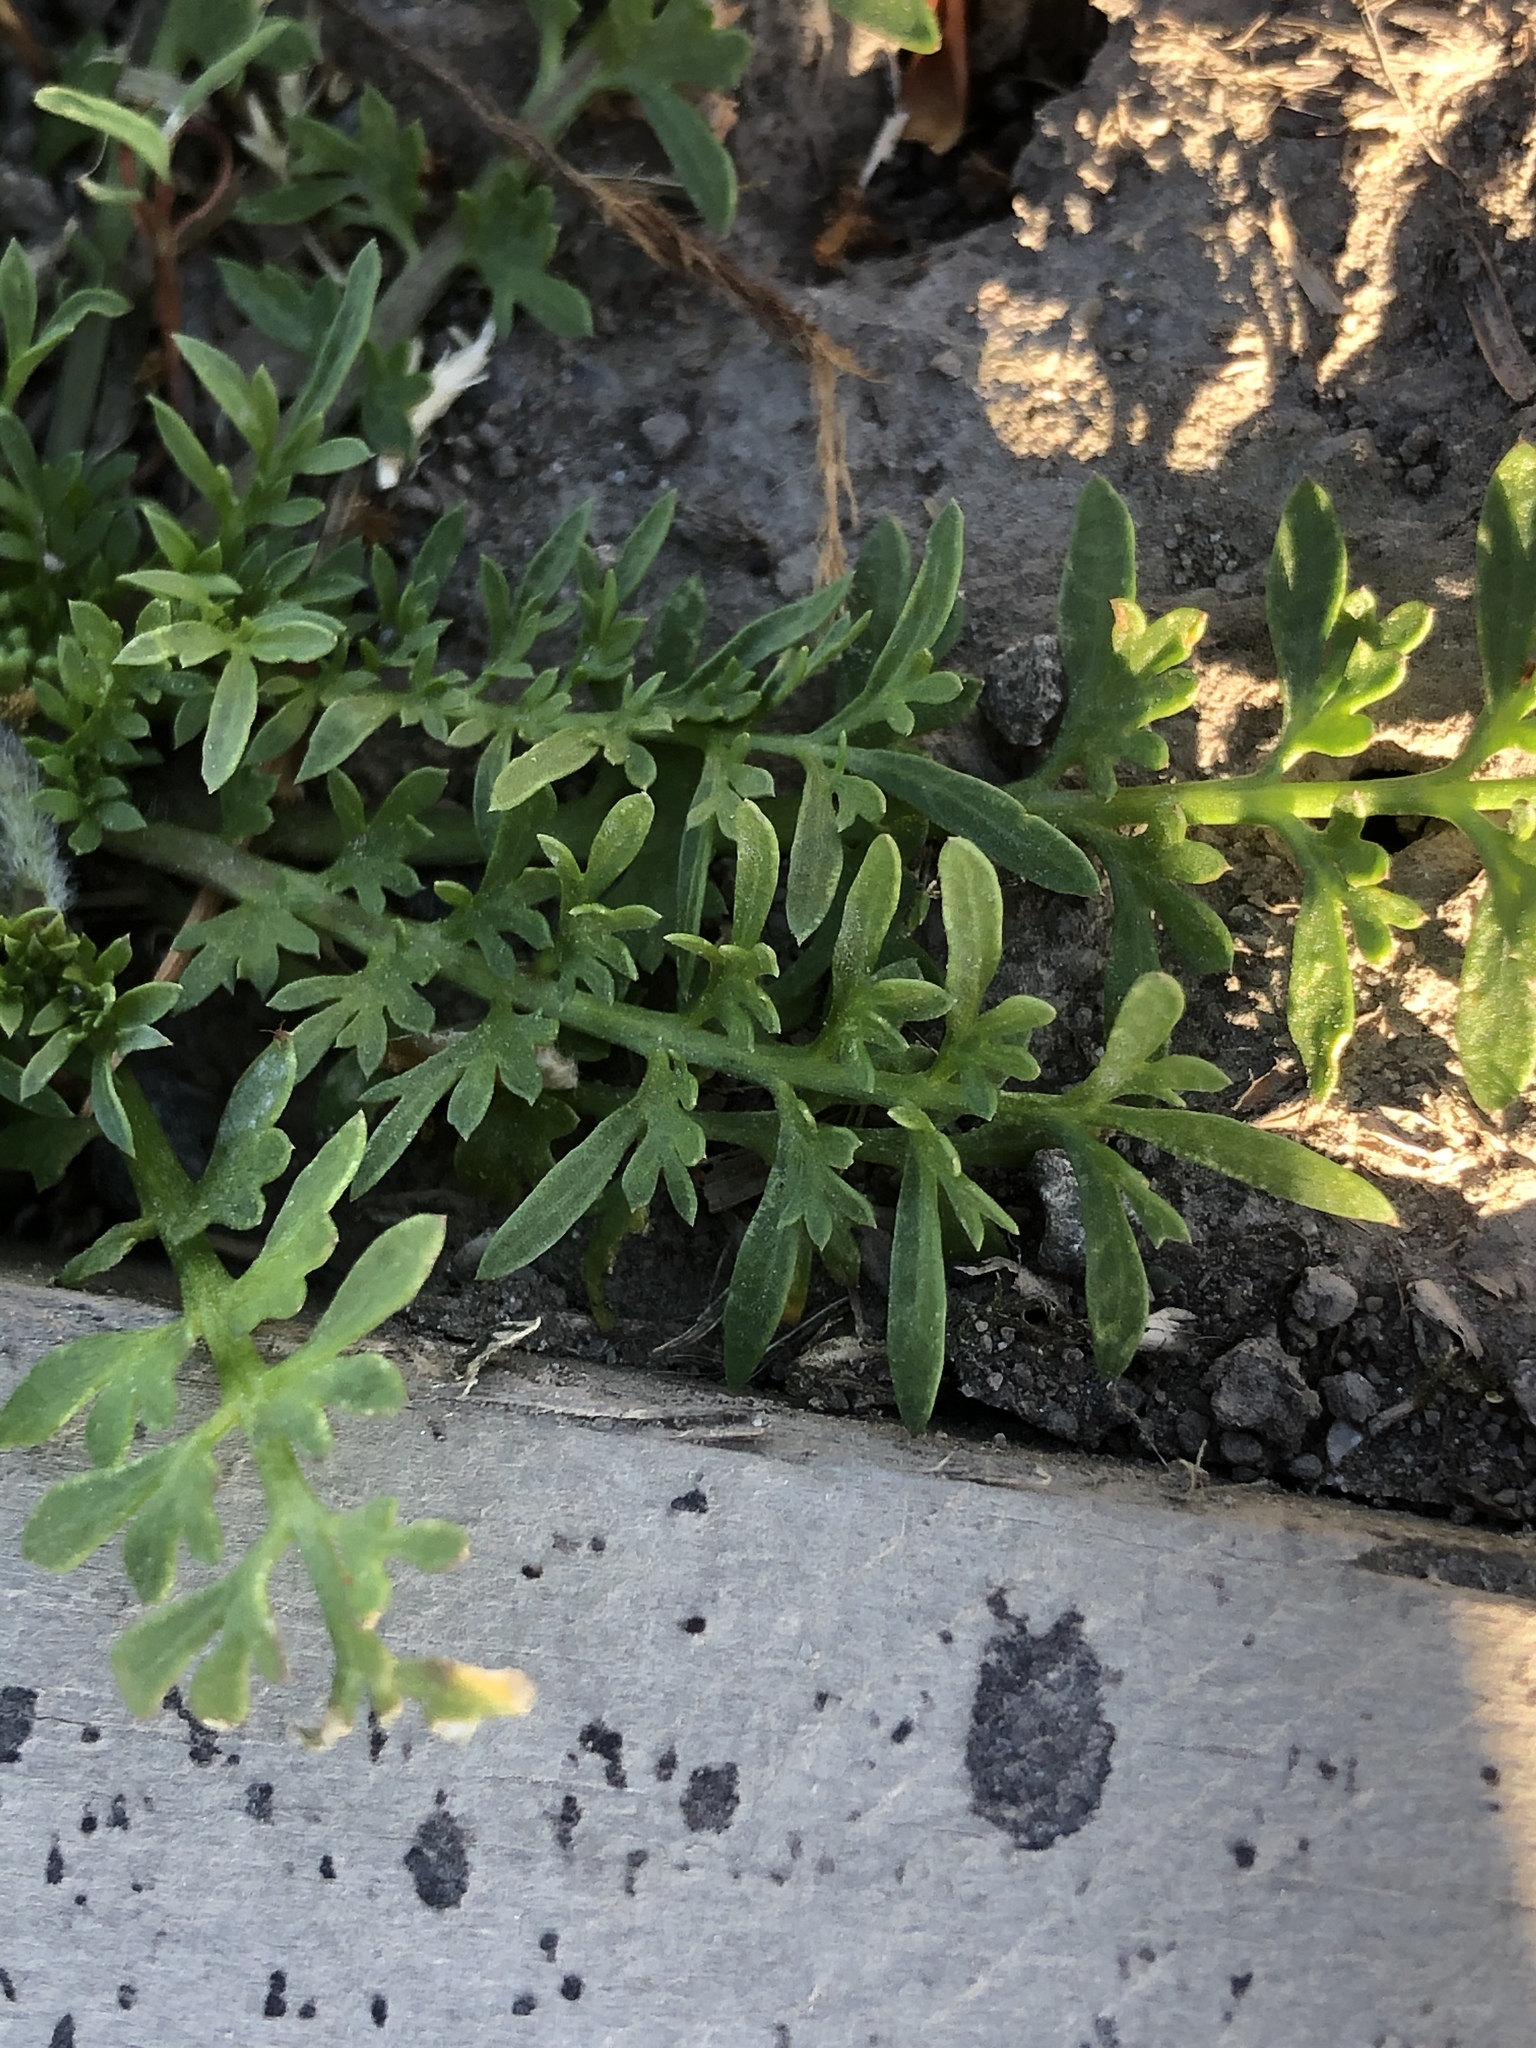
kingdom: Plantae
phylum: Tracheophyta
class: Magnoliopsida
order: Brassicales
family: Brassicaceae
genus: Lepidium
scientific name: Lepidium didymum
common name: Lesser swinecress
